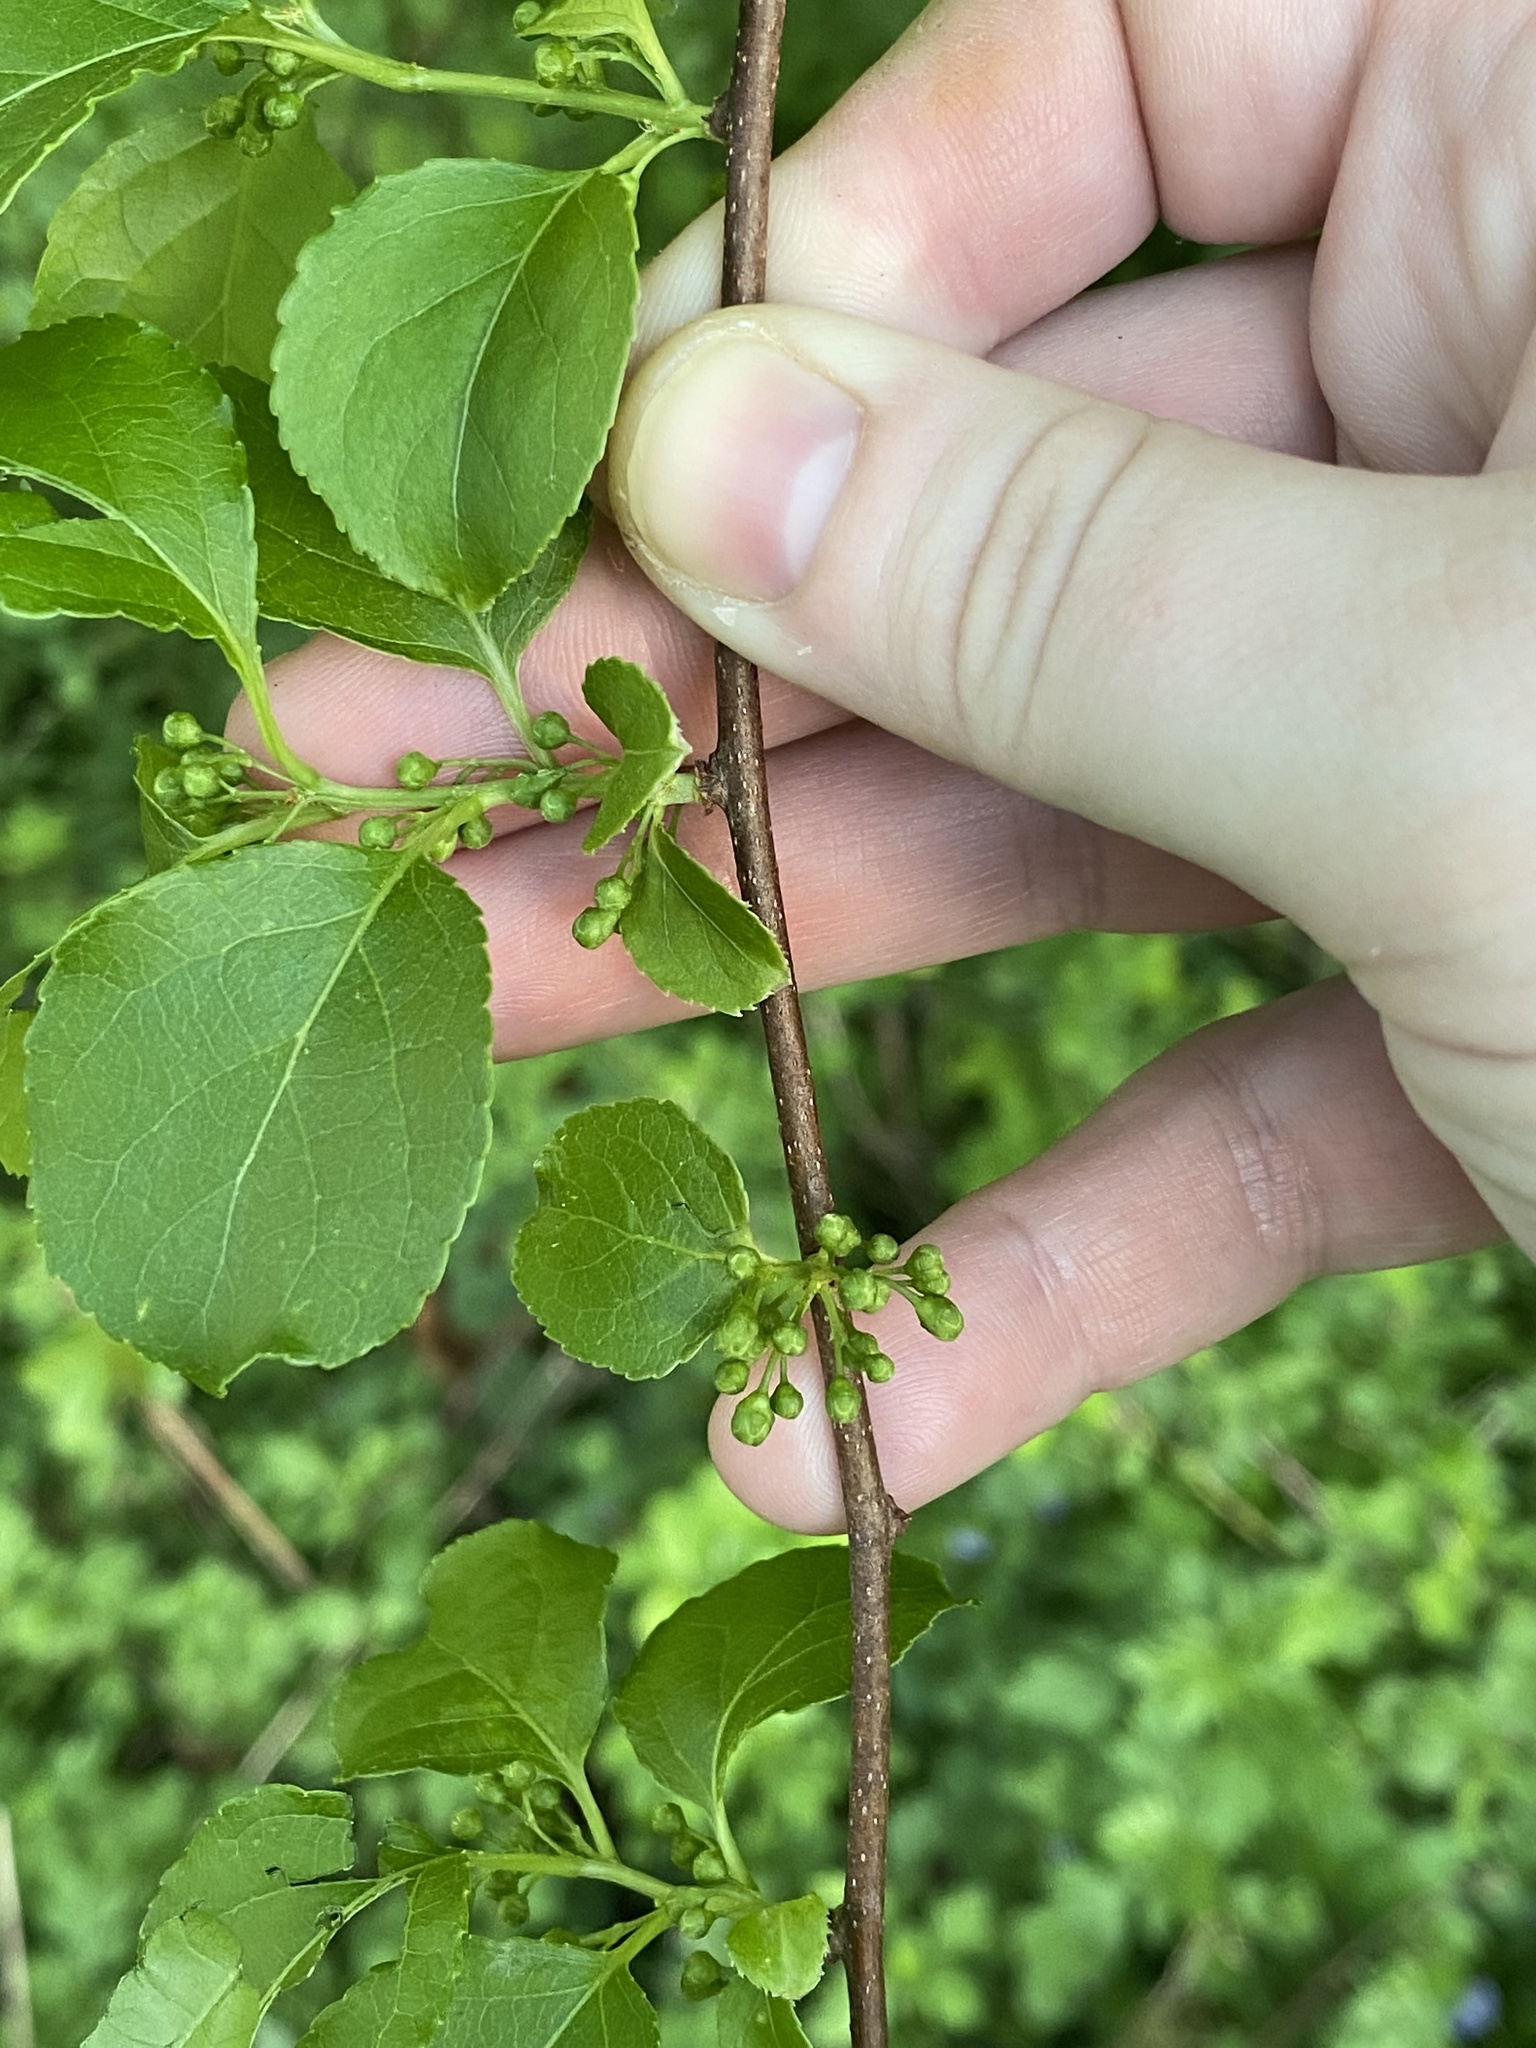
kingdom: Plantae
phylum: Tracheophyta
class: Magnoliopsida
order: Celastrales
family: Celastraceae
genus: Celastrus
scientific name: Celastrus orbiculatus
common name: Oriental bittersweet
